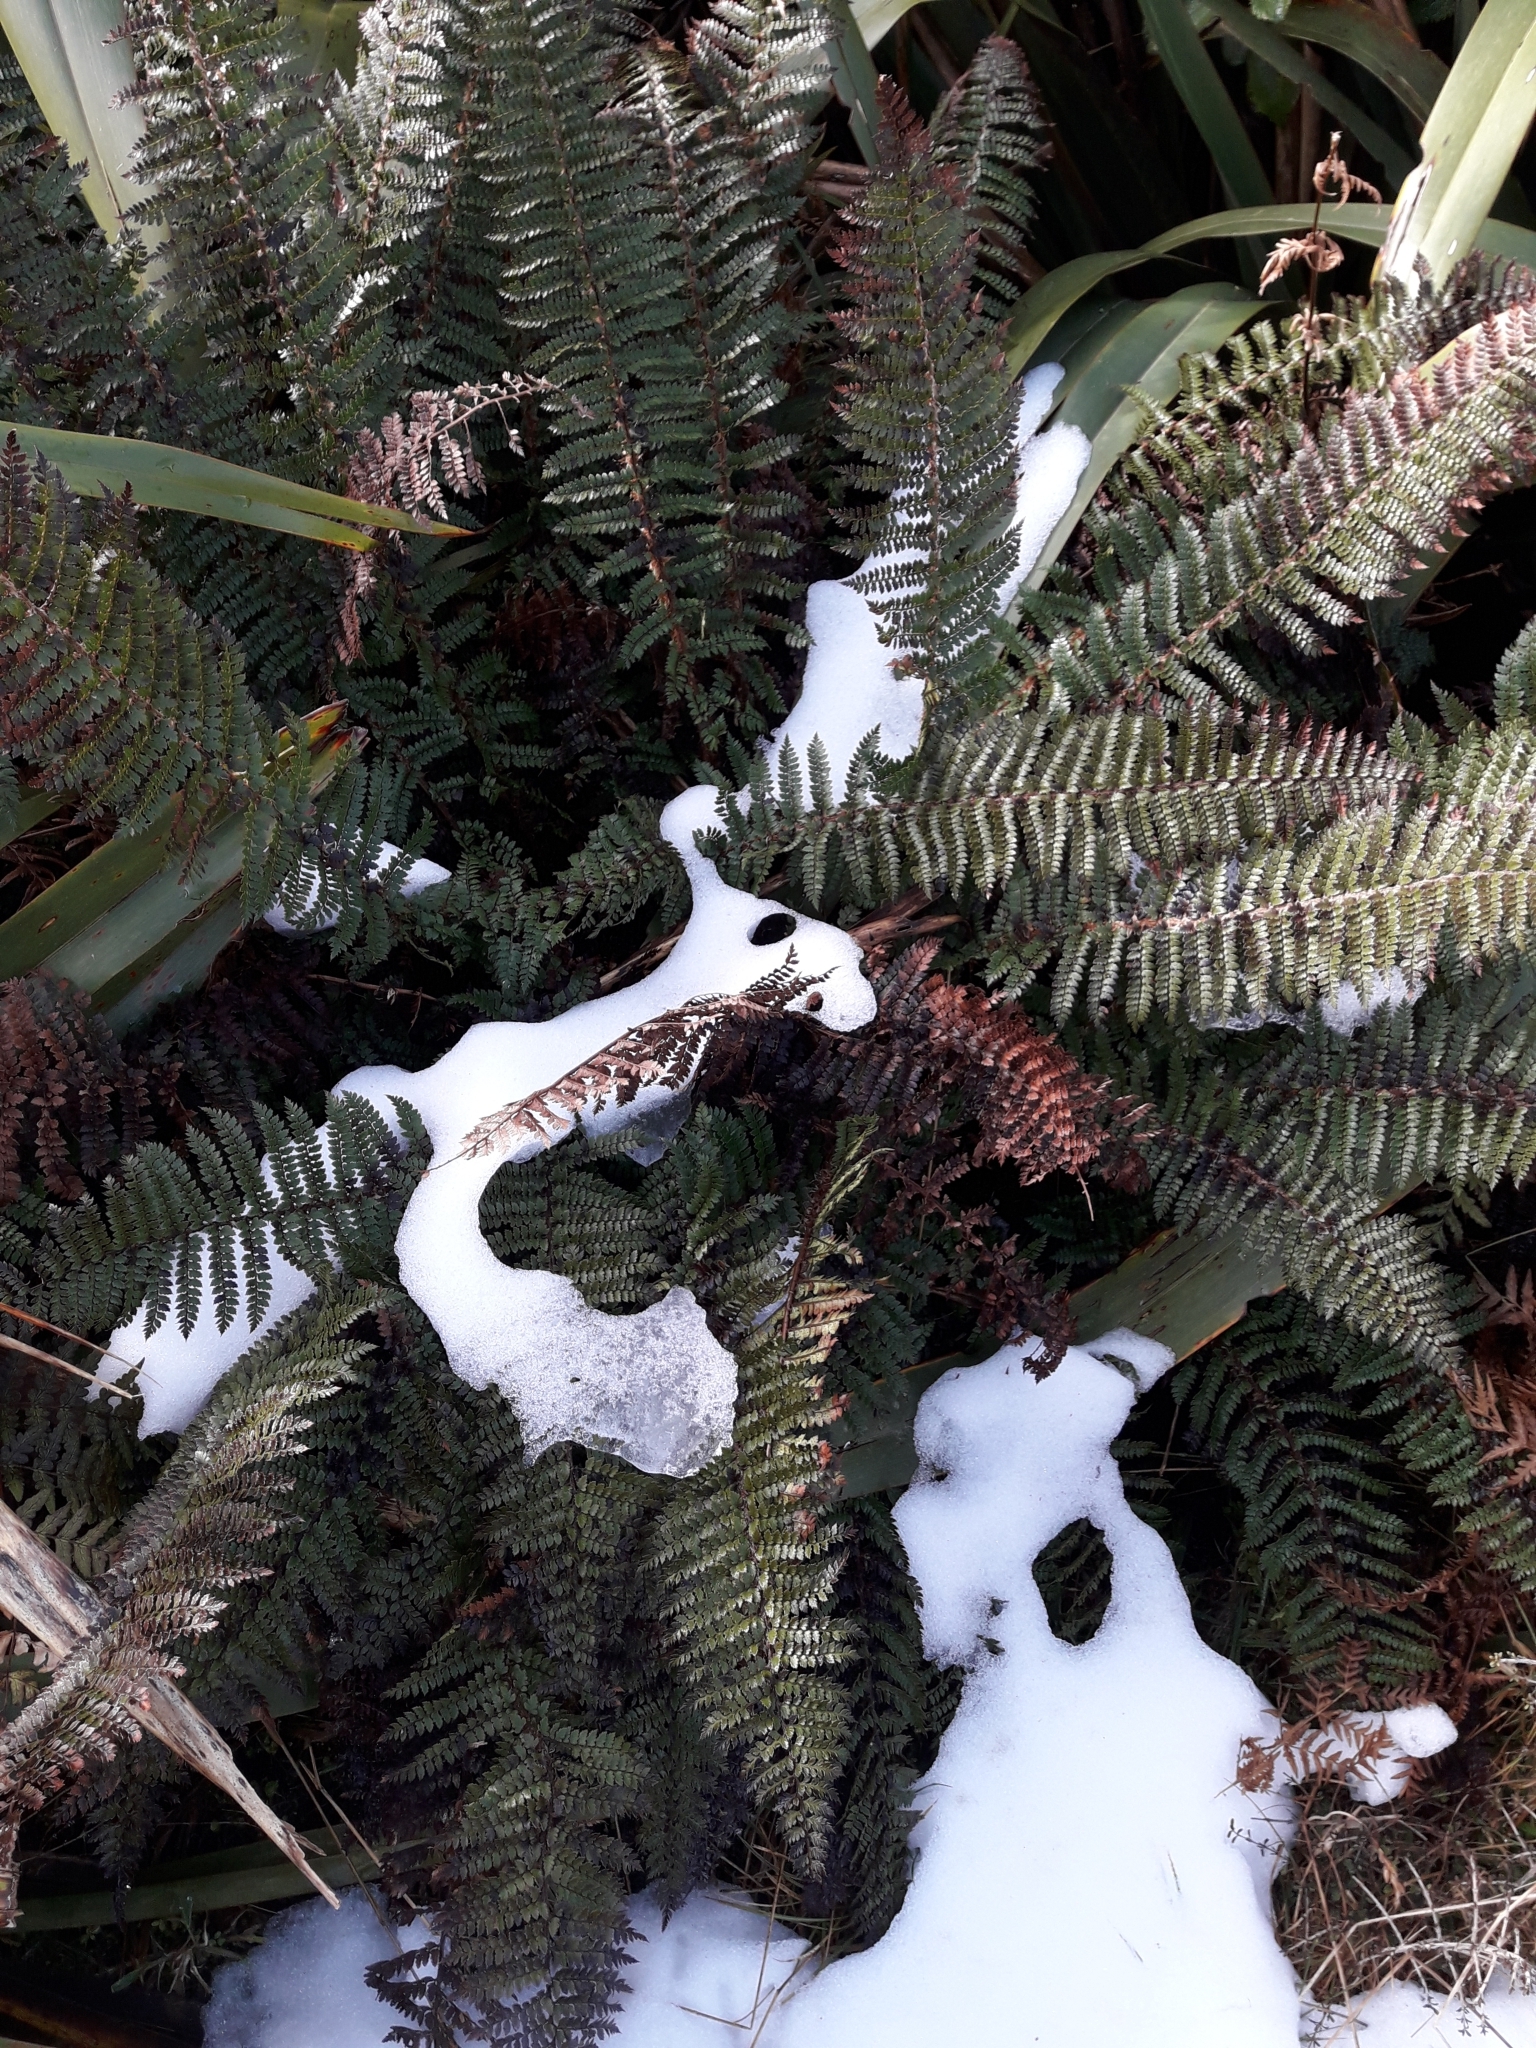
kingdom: Plantae
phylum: Tracheophyta
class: Polypodiopsida
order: Polypodiales
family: Dryopteridaceae
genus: Polystichum
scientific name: Polystichum vestitum
